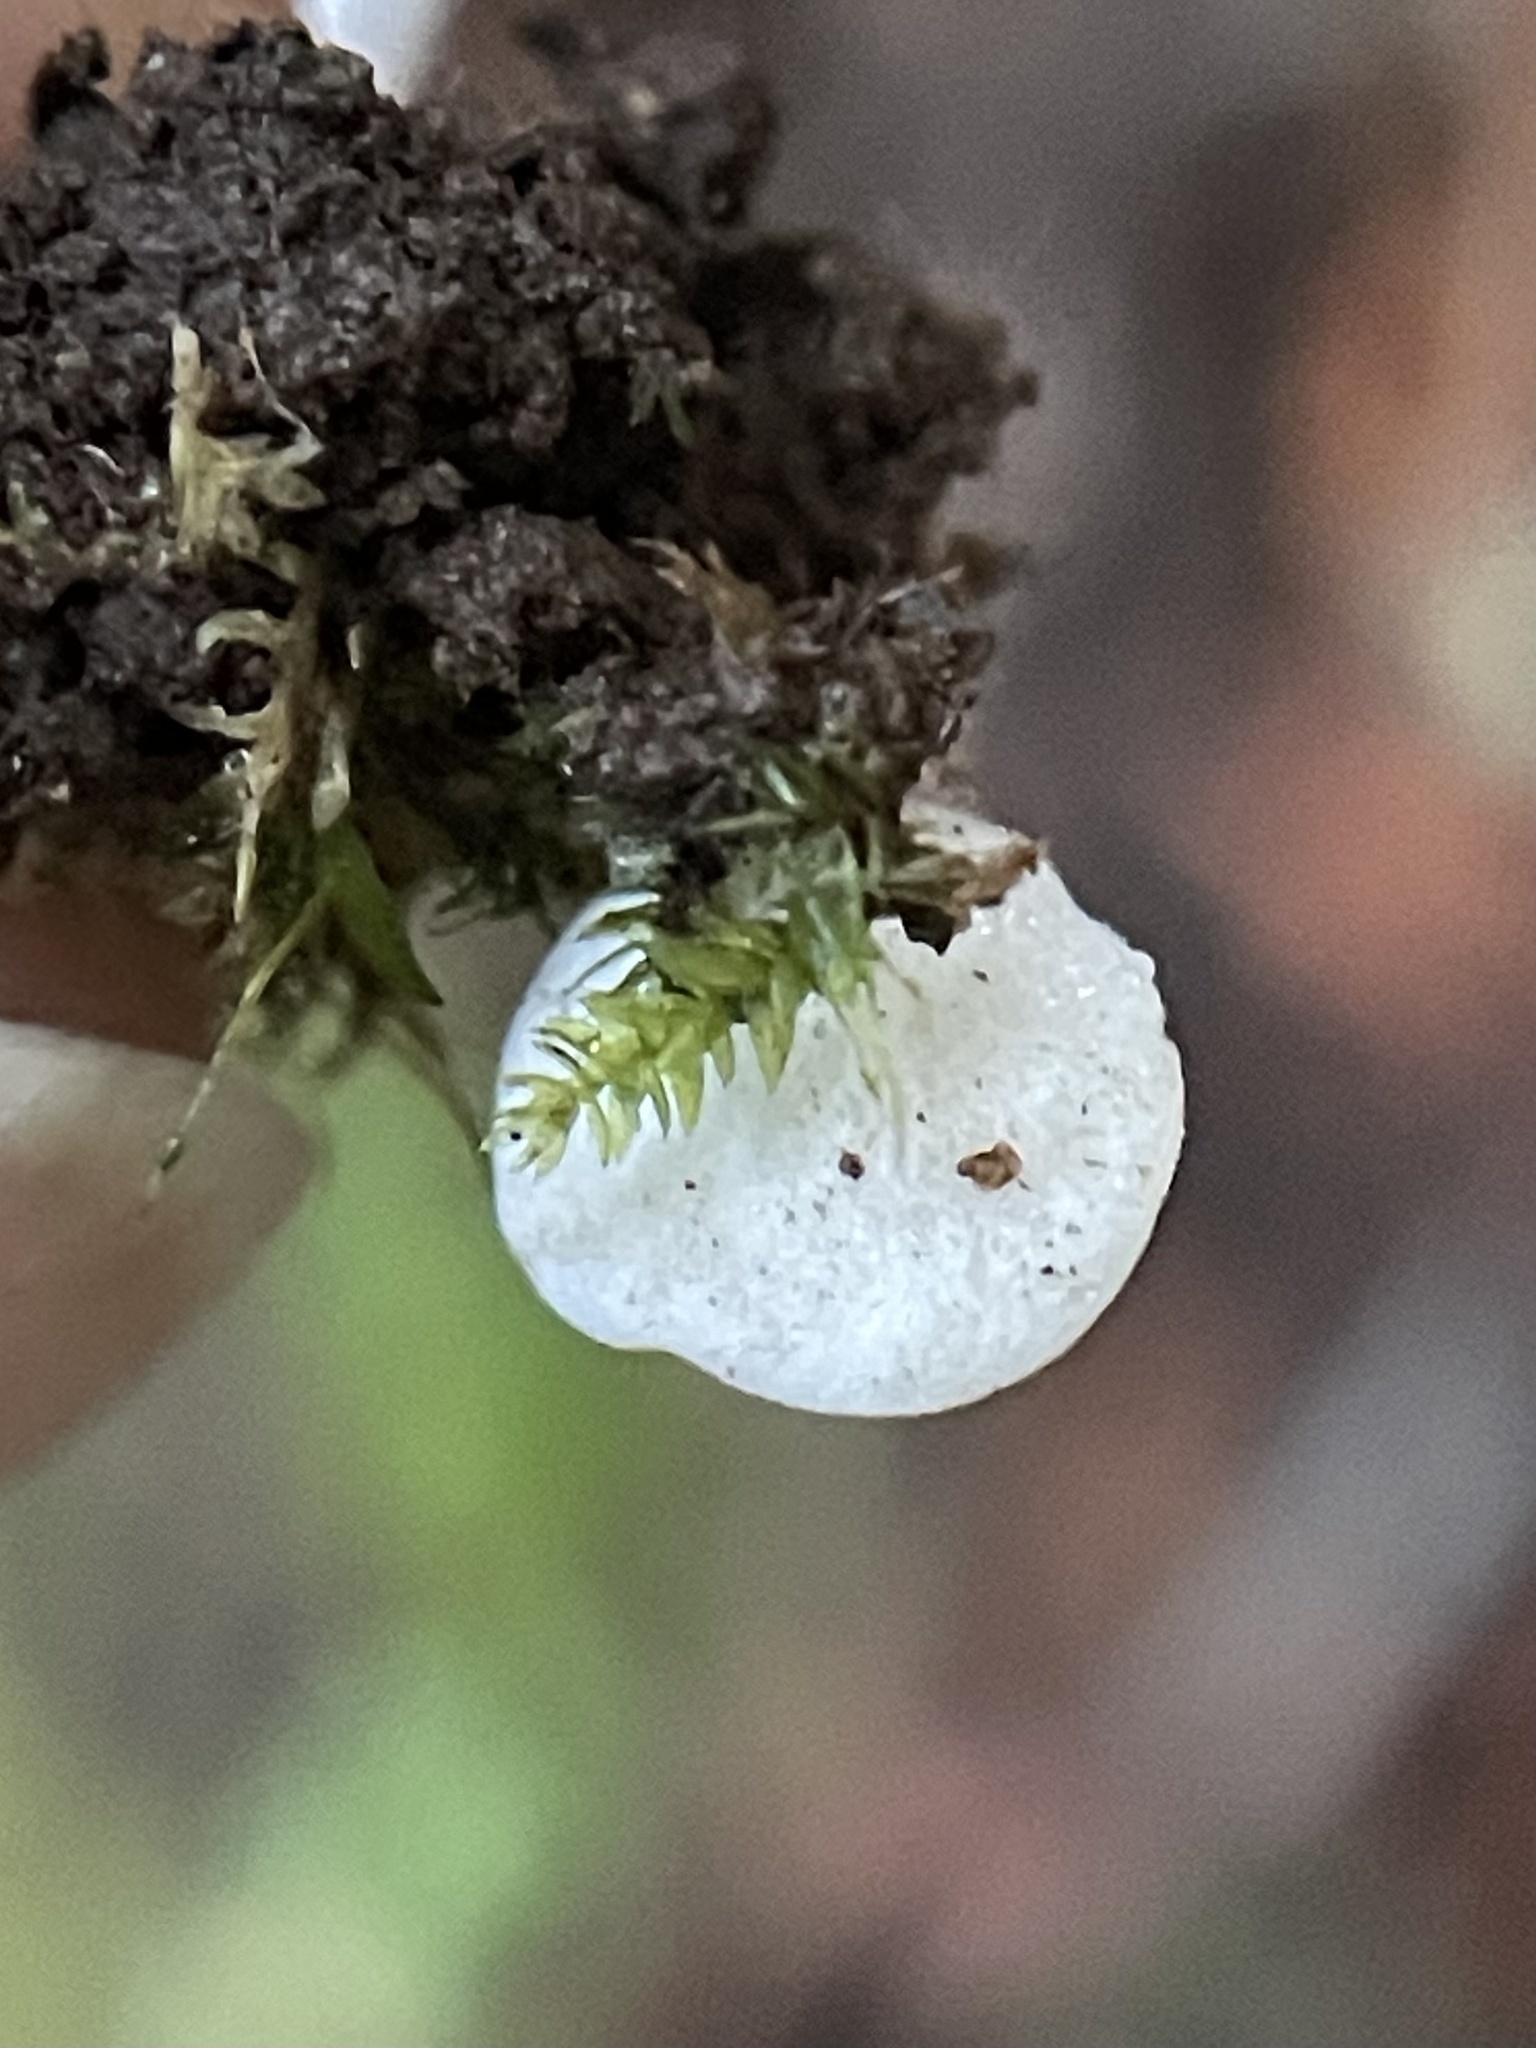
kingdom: Fungi
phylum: Basidiomycota
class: Agaricomycetes
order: Agaricales
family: Tricholomataceae
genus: Rimbachia
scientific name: Rimbachia bryophila
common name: Veined mossear
